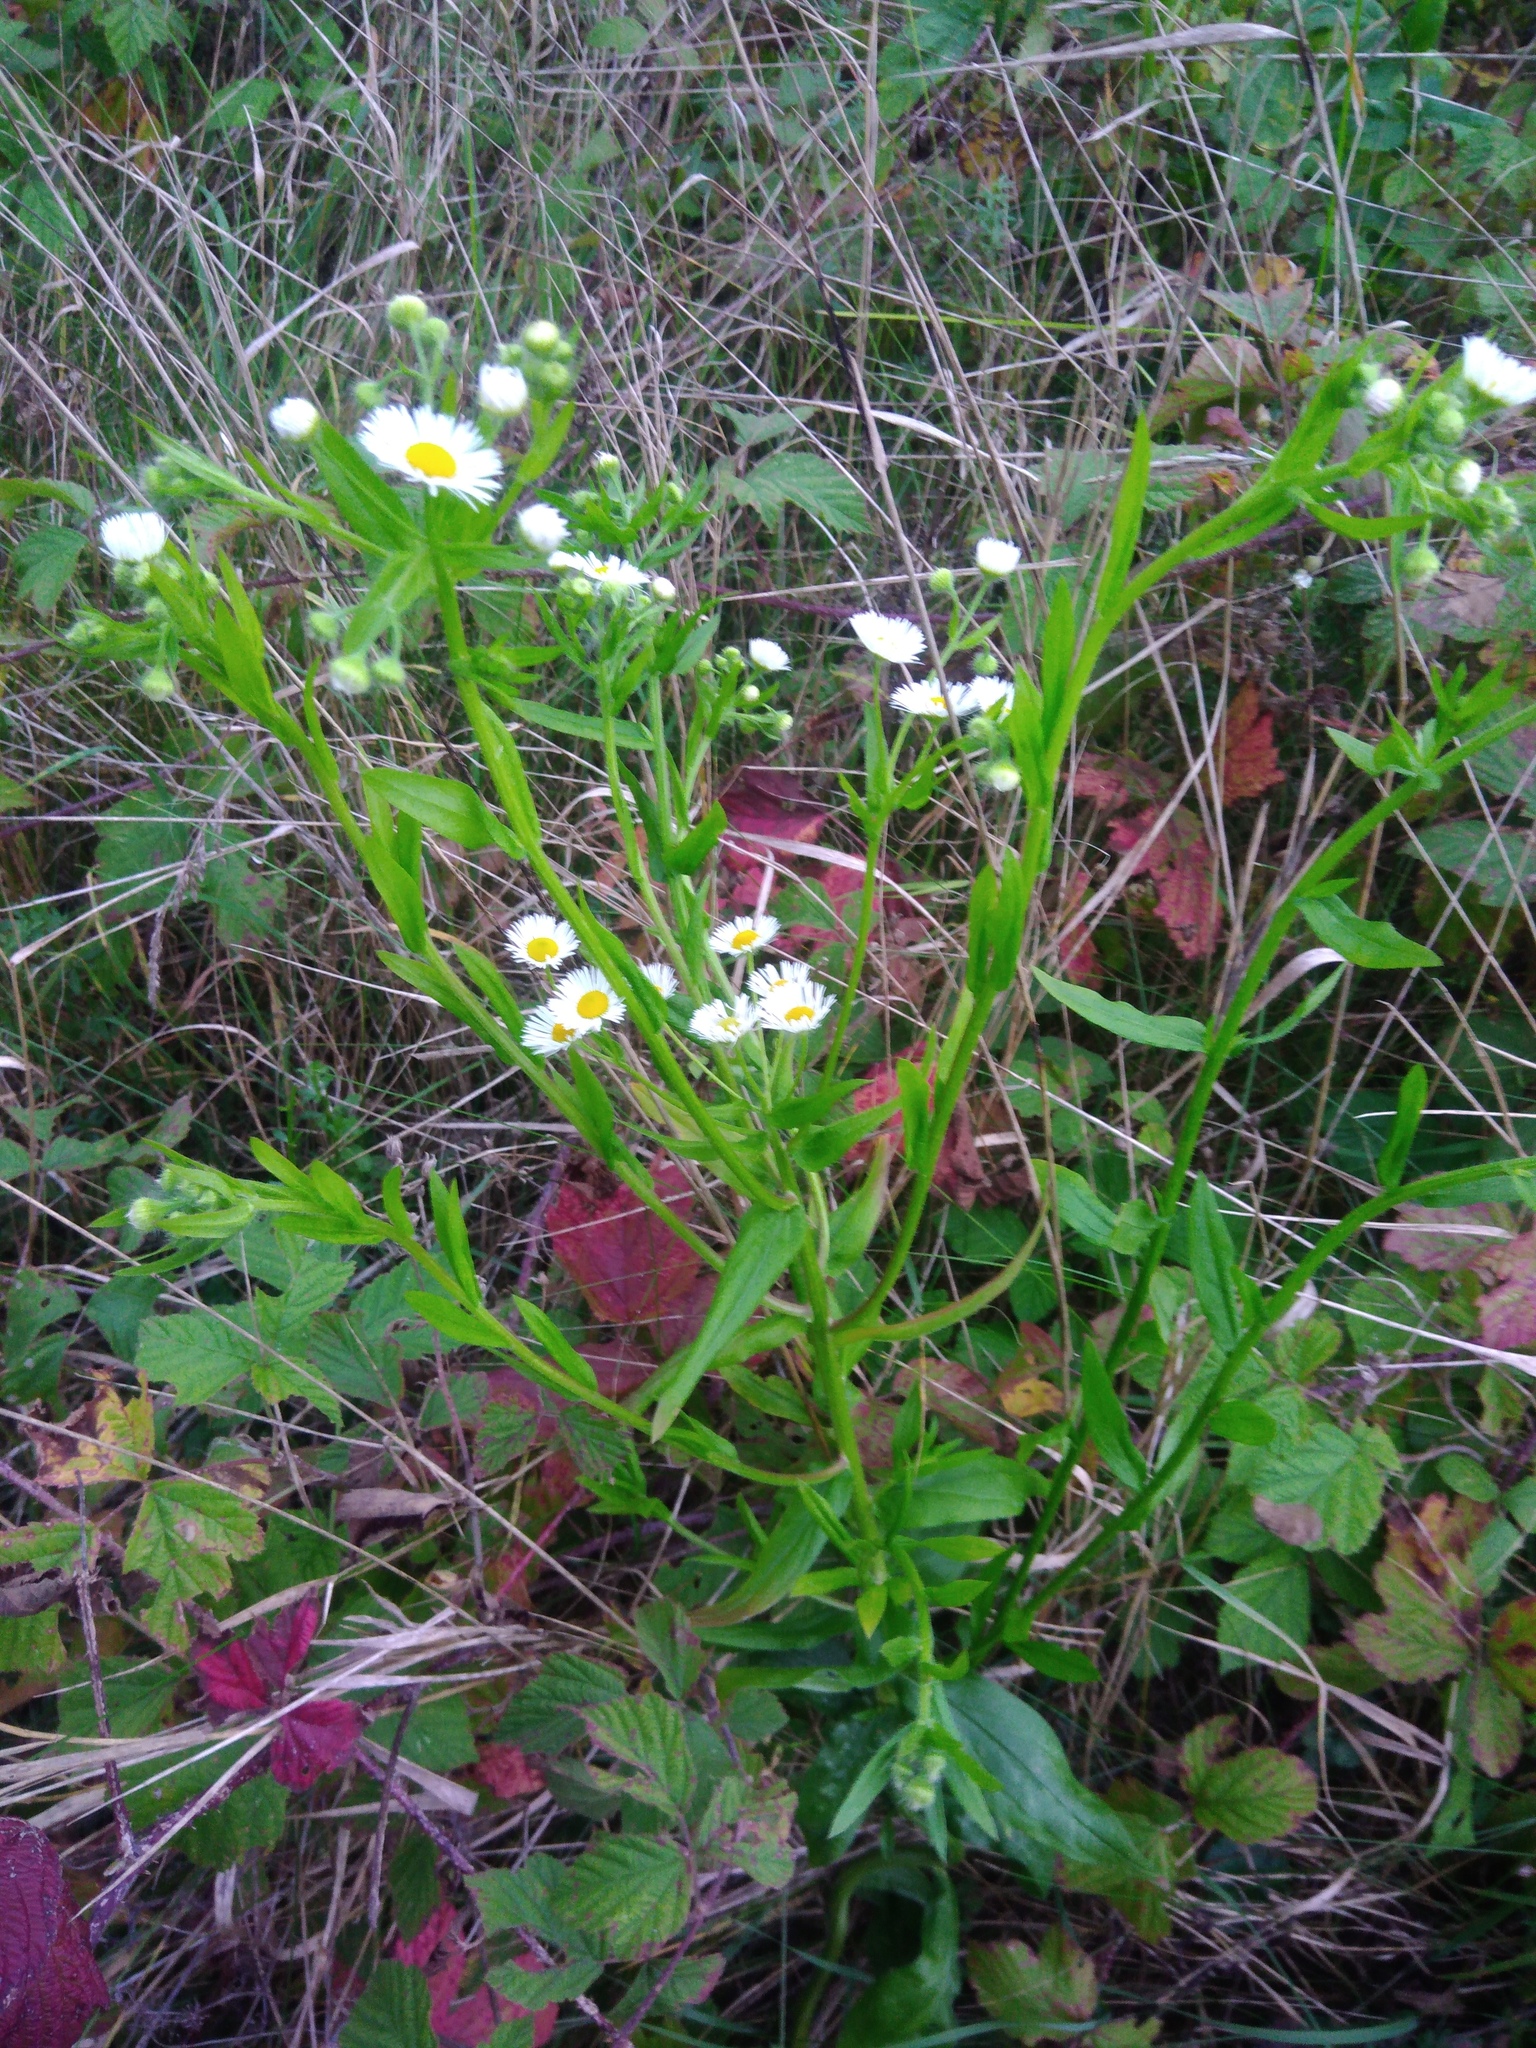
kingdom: Plantae
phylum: Tracheophyta
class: Magnoliopsida
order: Asterales
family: Asteraceae
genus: Erigeron
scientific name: Erigeron annuus
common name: Tall fleabane
